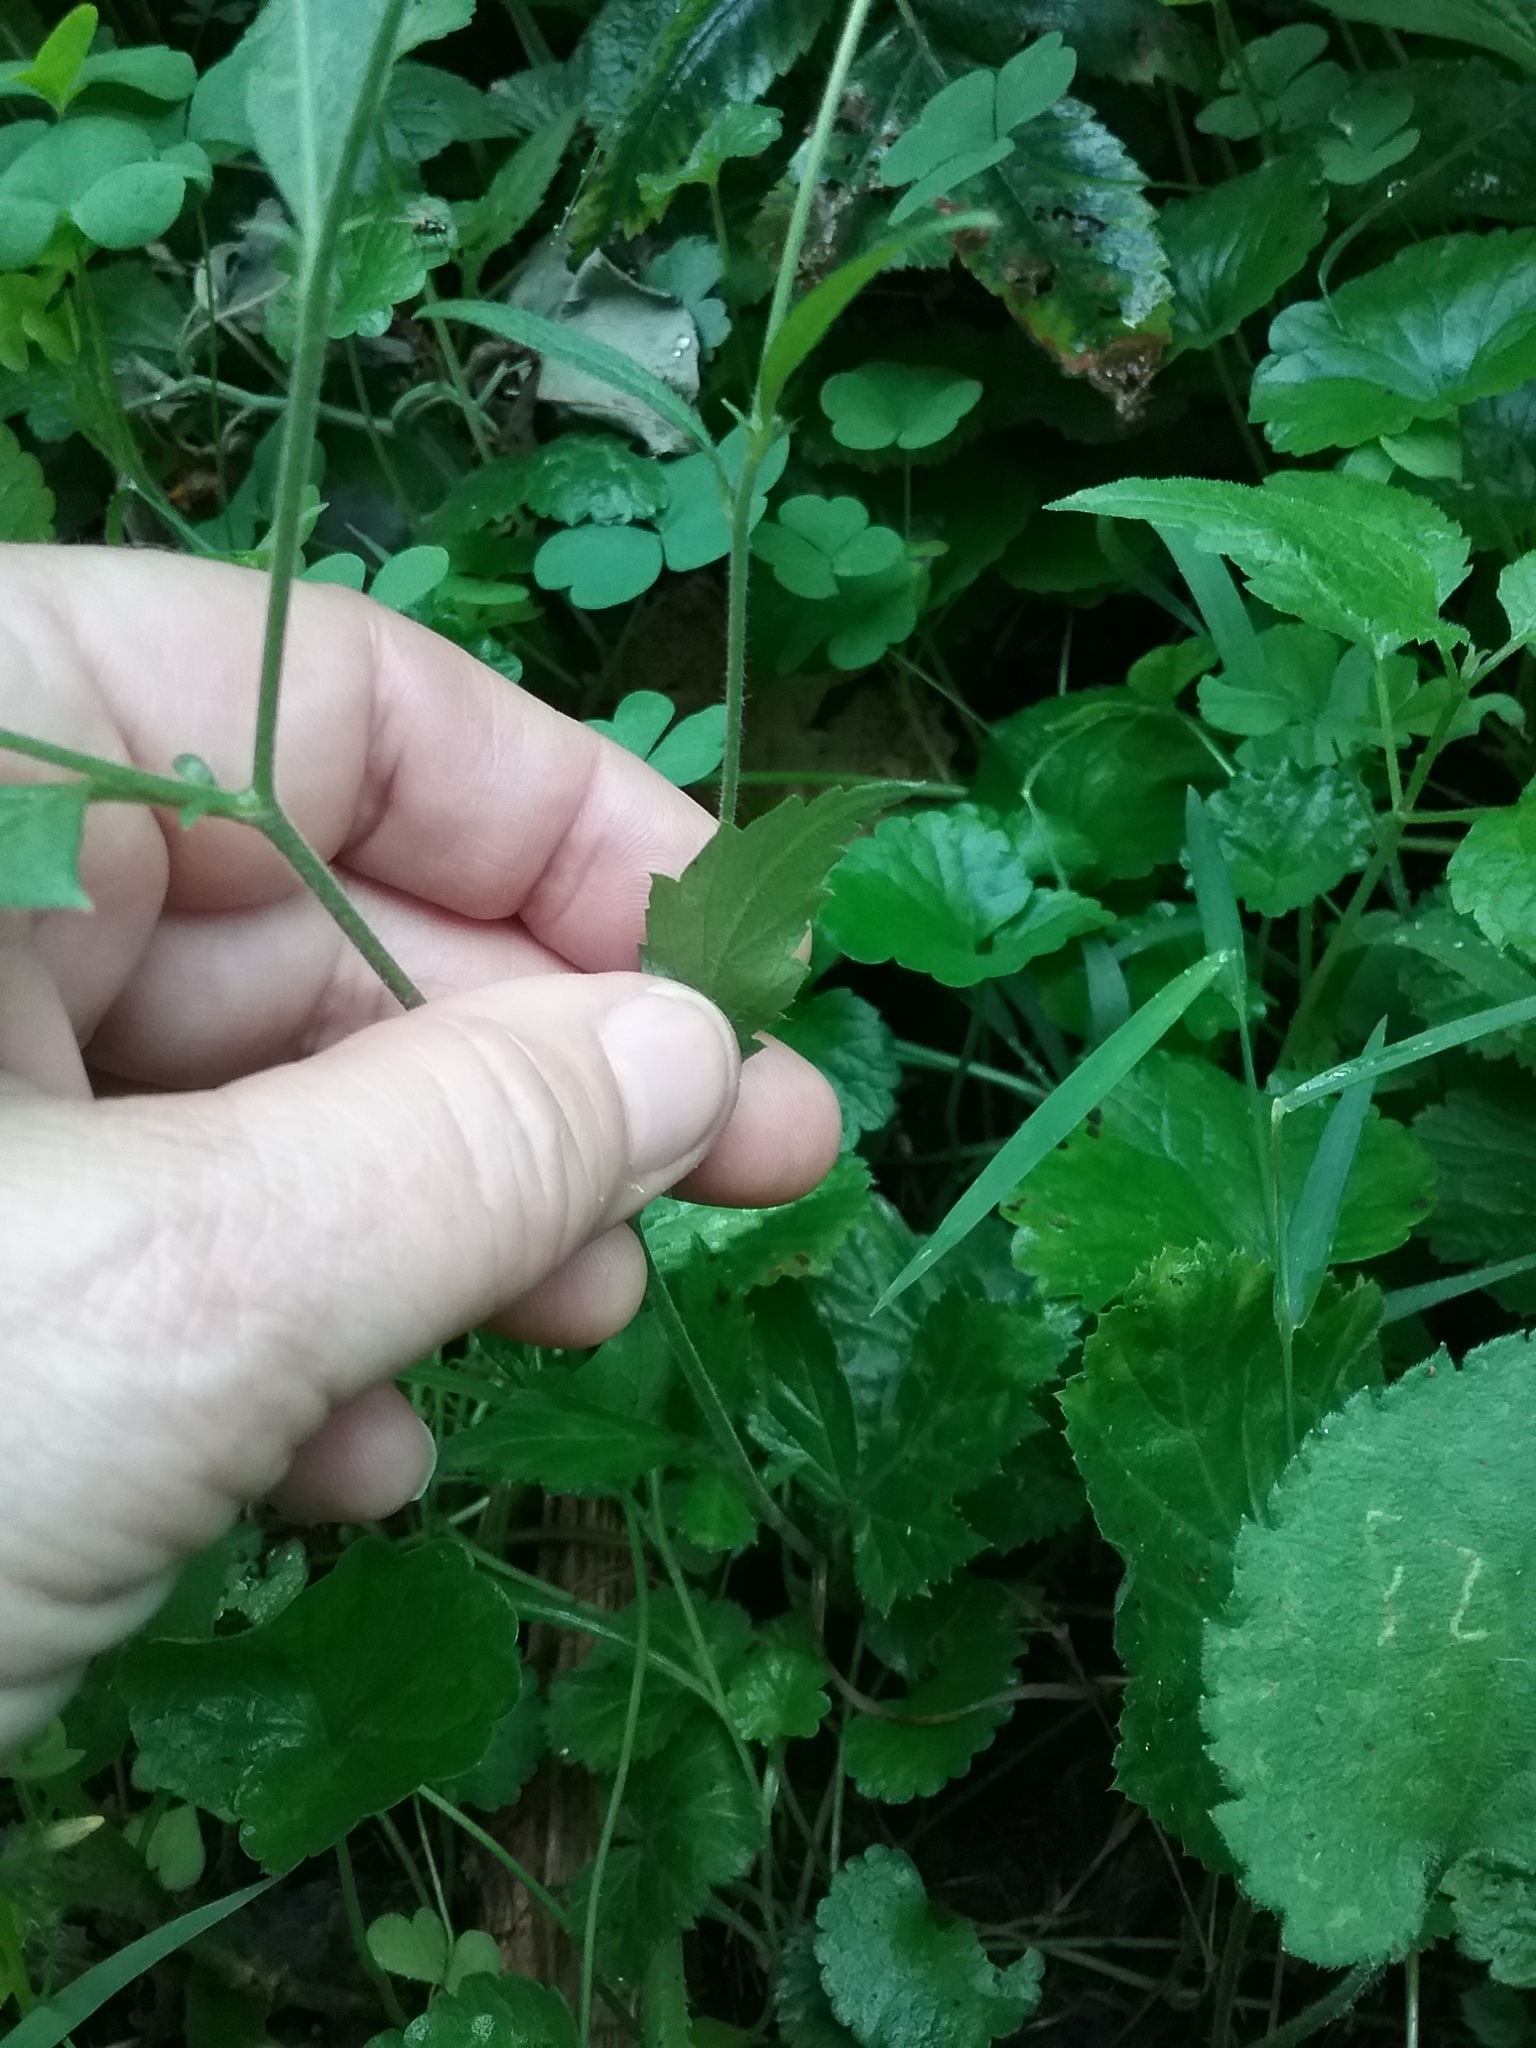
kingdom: Plantae
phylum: Tracheophyta
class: Magnoliopsida
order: Rosales
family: Rosaceae
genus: Geum
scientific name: Geum canadense
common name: White avens
